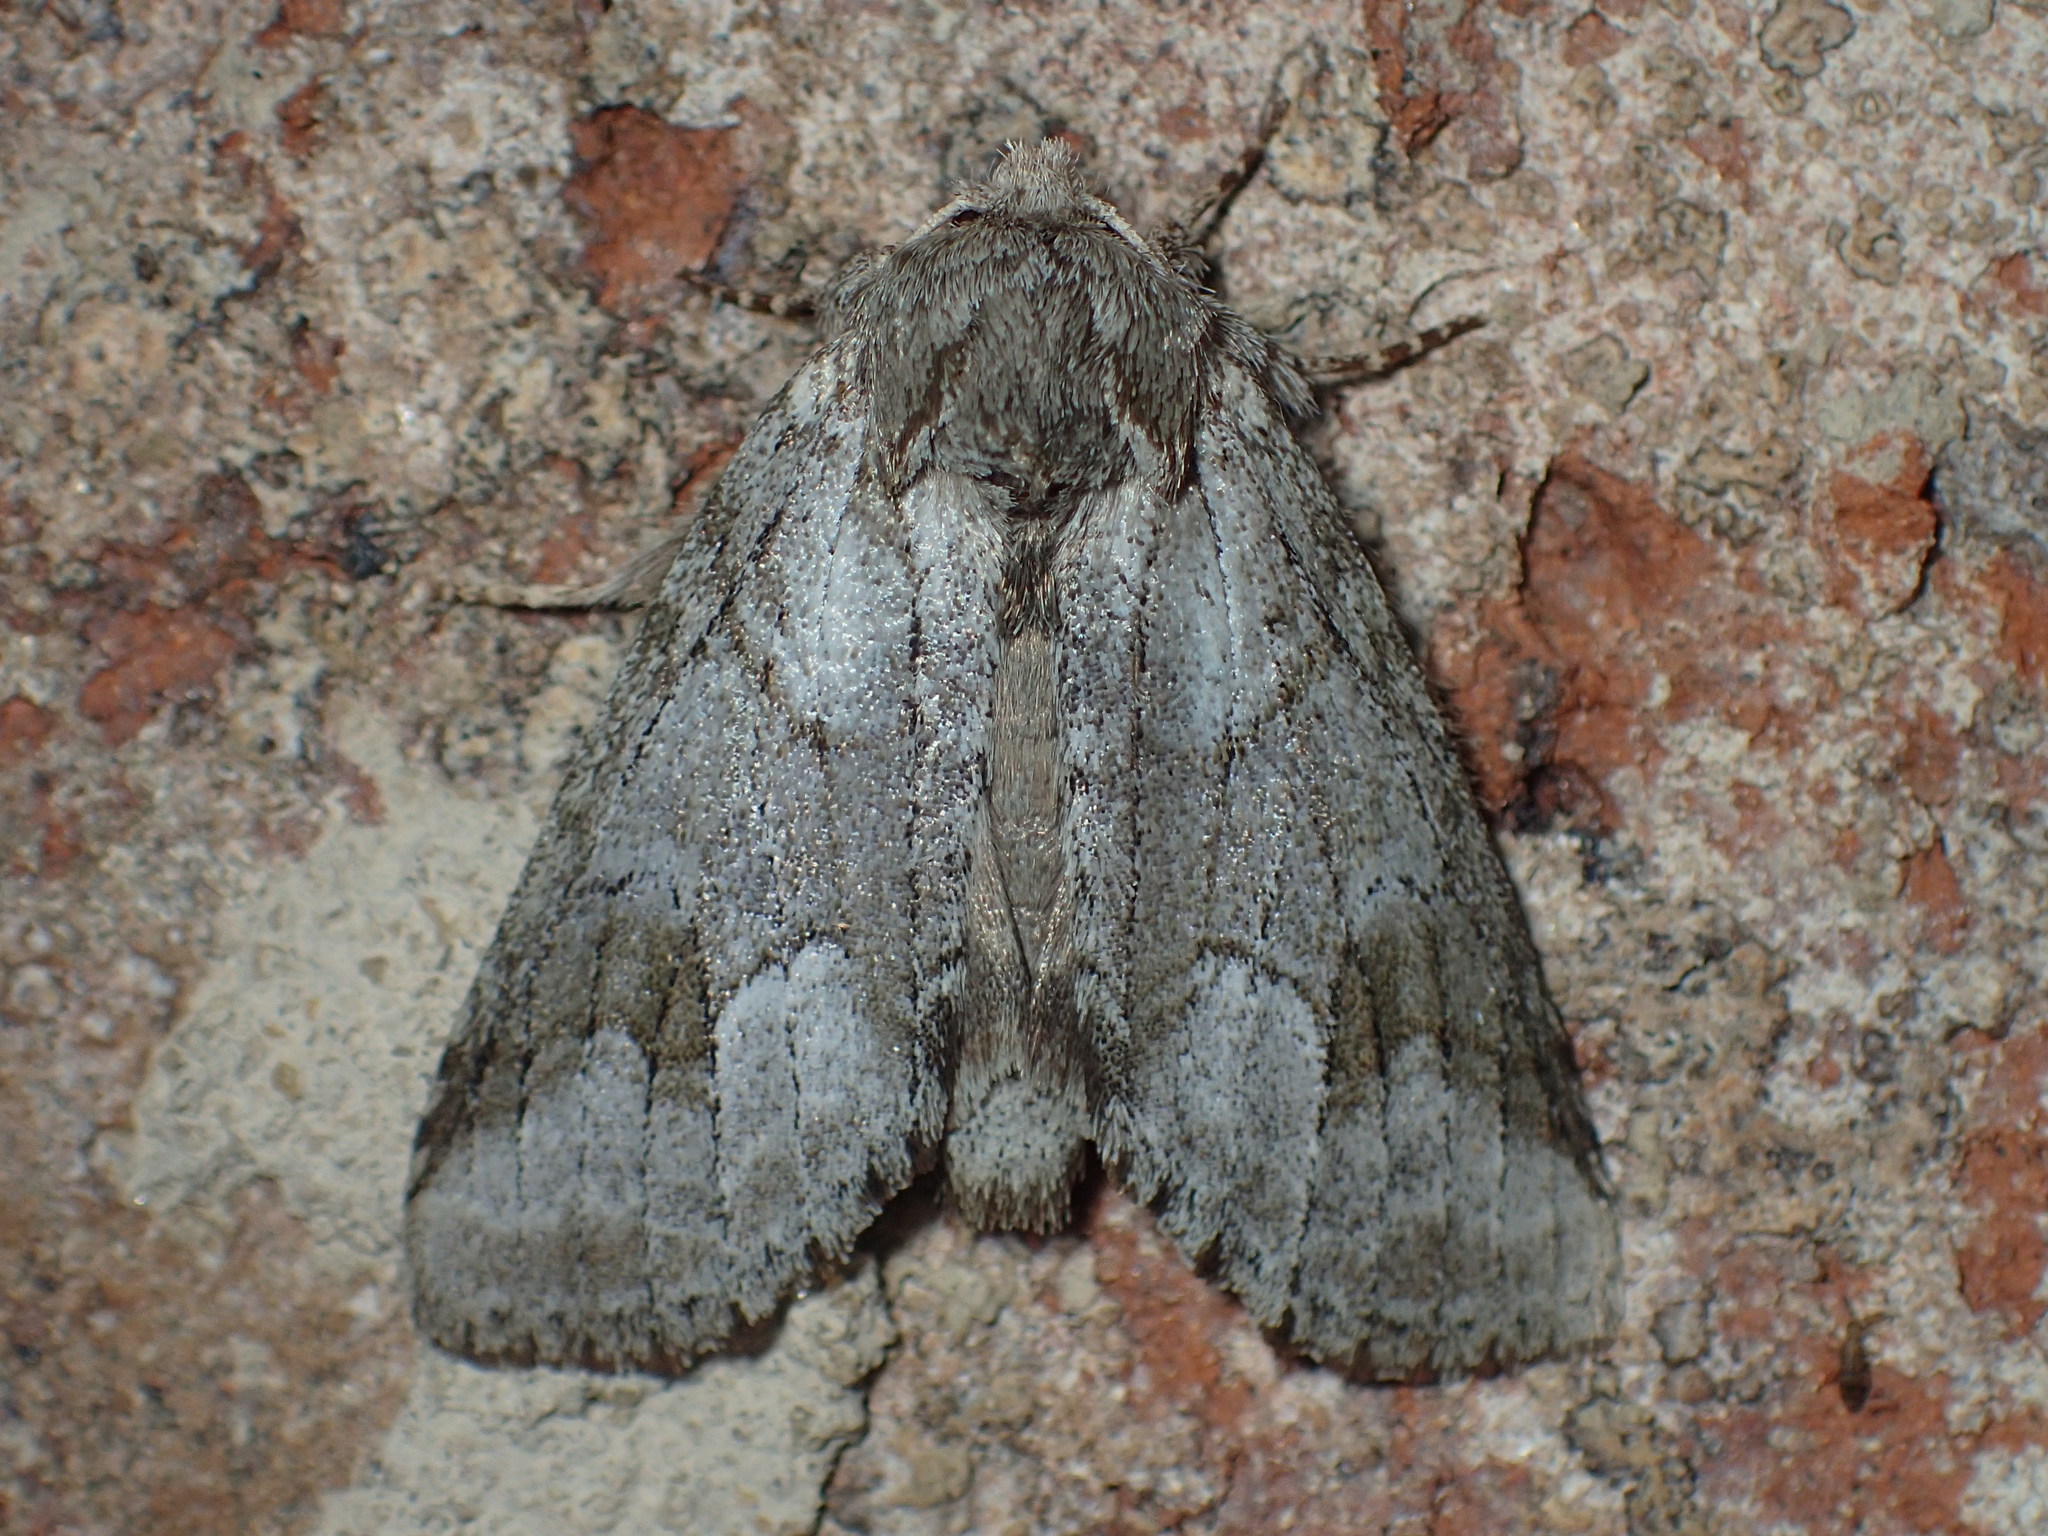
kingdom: Animalia
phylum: Arthropoda
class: Insecta
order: Lepidoptera
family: Notodontidae
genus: Lochmaeus
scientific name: Lochmaeus bilineata
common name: Double-lined prominent
